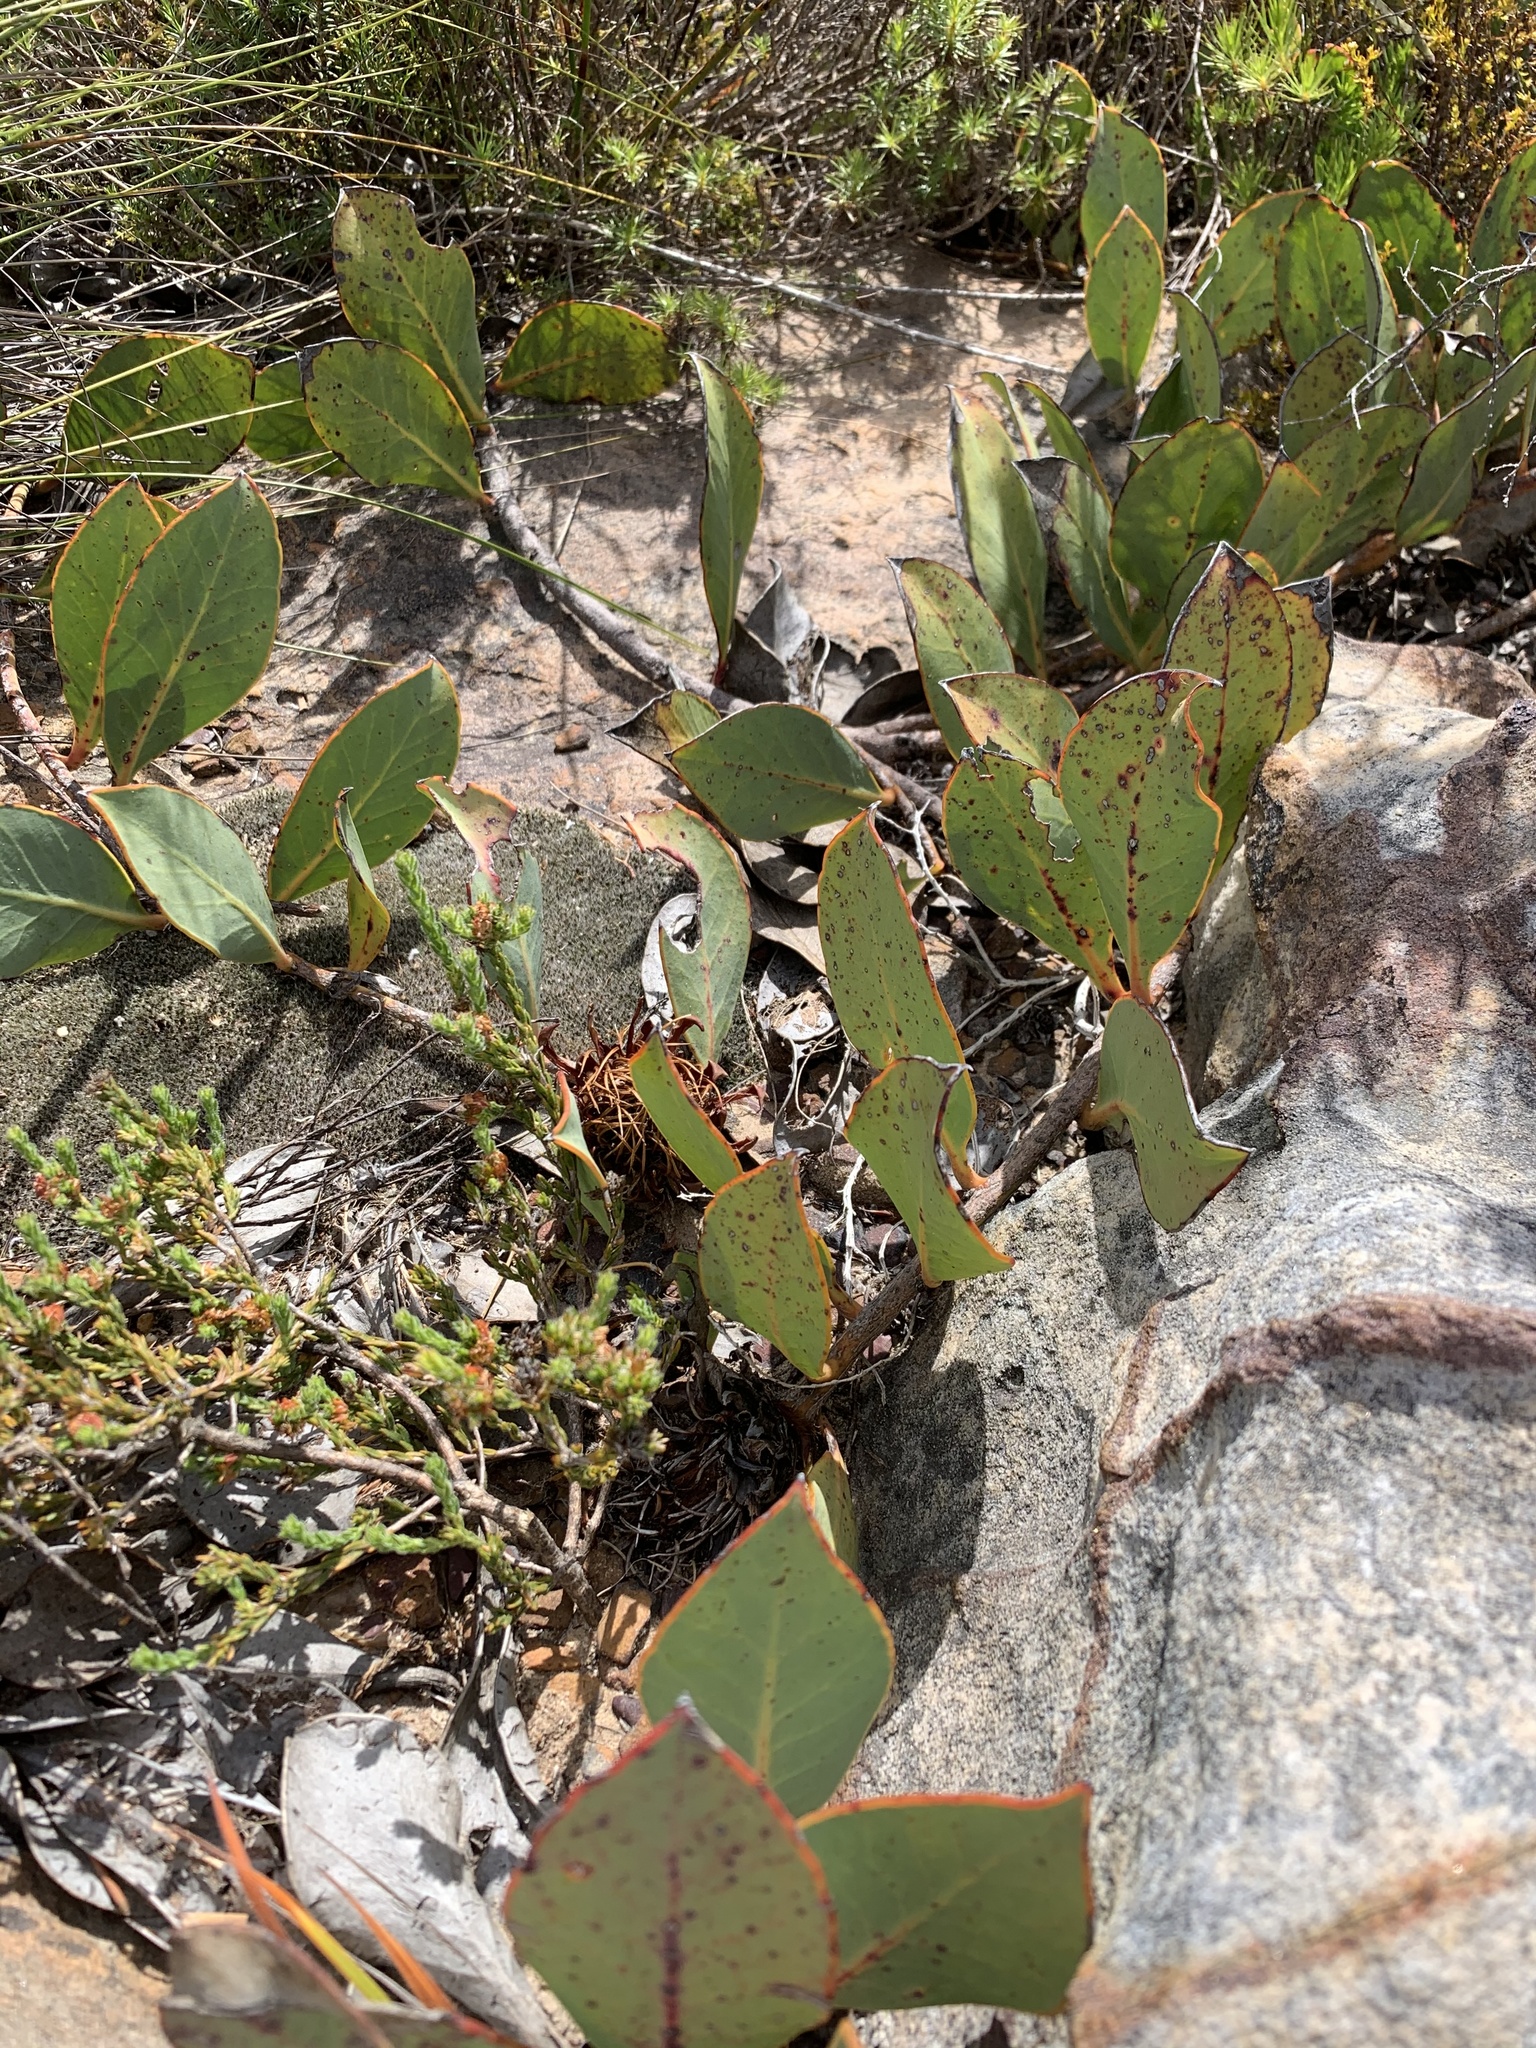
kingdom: Plantae
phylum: Tracheophyta
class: Magnoliopsida
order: Proteales
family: Proteaceae
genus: Protea
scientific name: Protea acaulos
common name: Common ground sugarbush
